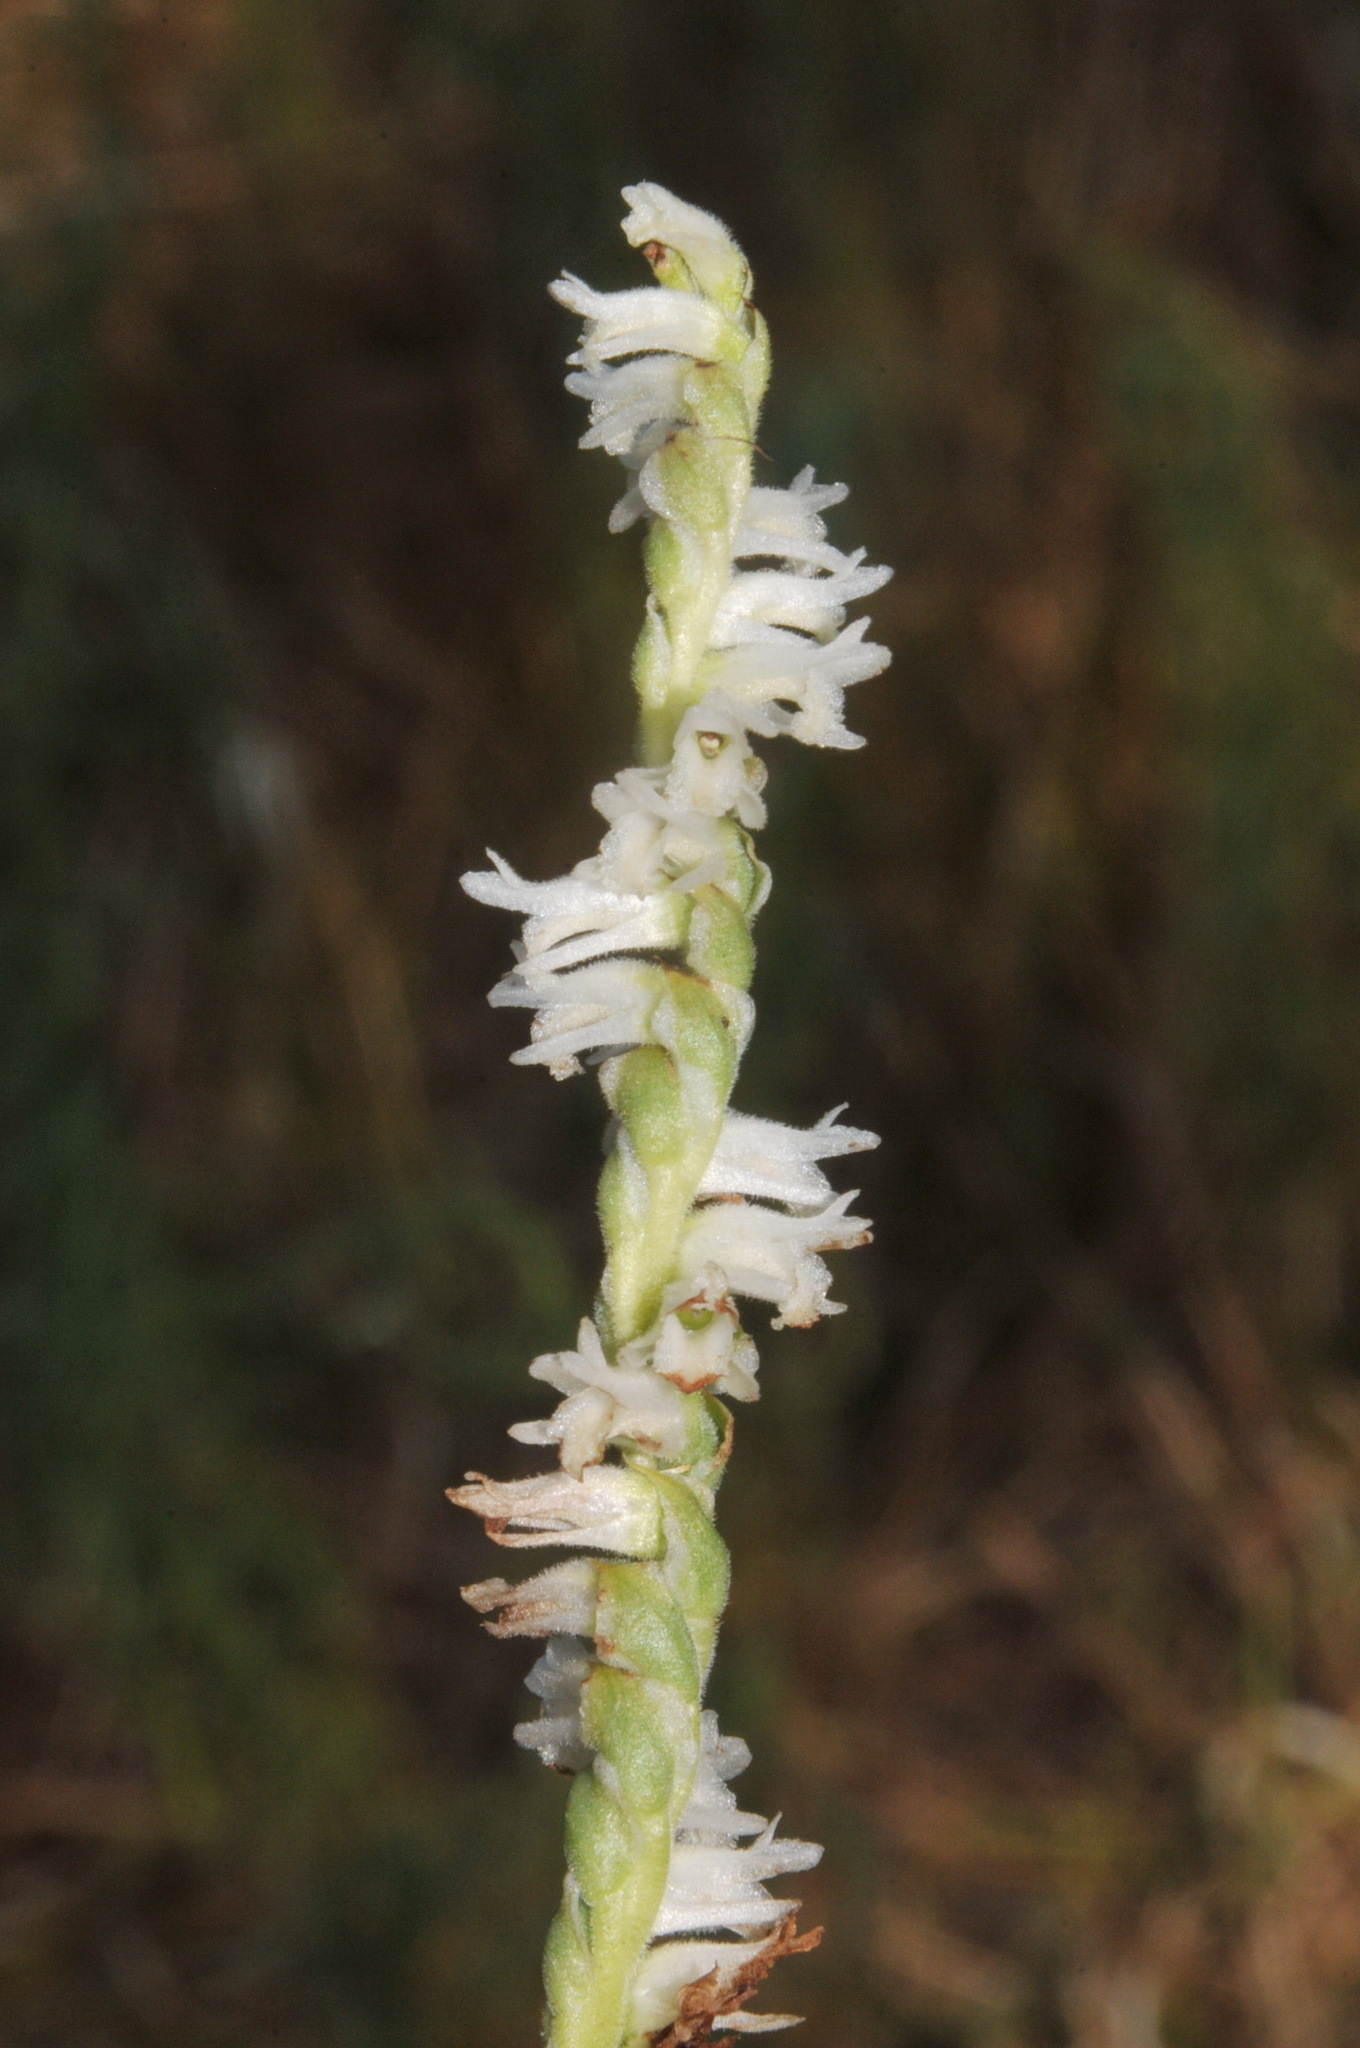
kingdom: Plantae
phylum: Tracheophyta
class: Liliopsida
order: Asparagales
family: Orchidaceae
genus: Spiranthes
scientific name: Spiranthes vernalis
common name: Spring ladies'-tresses
